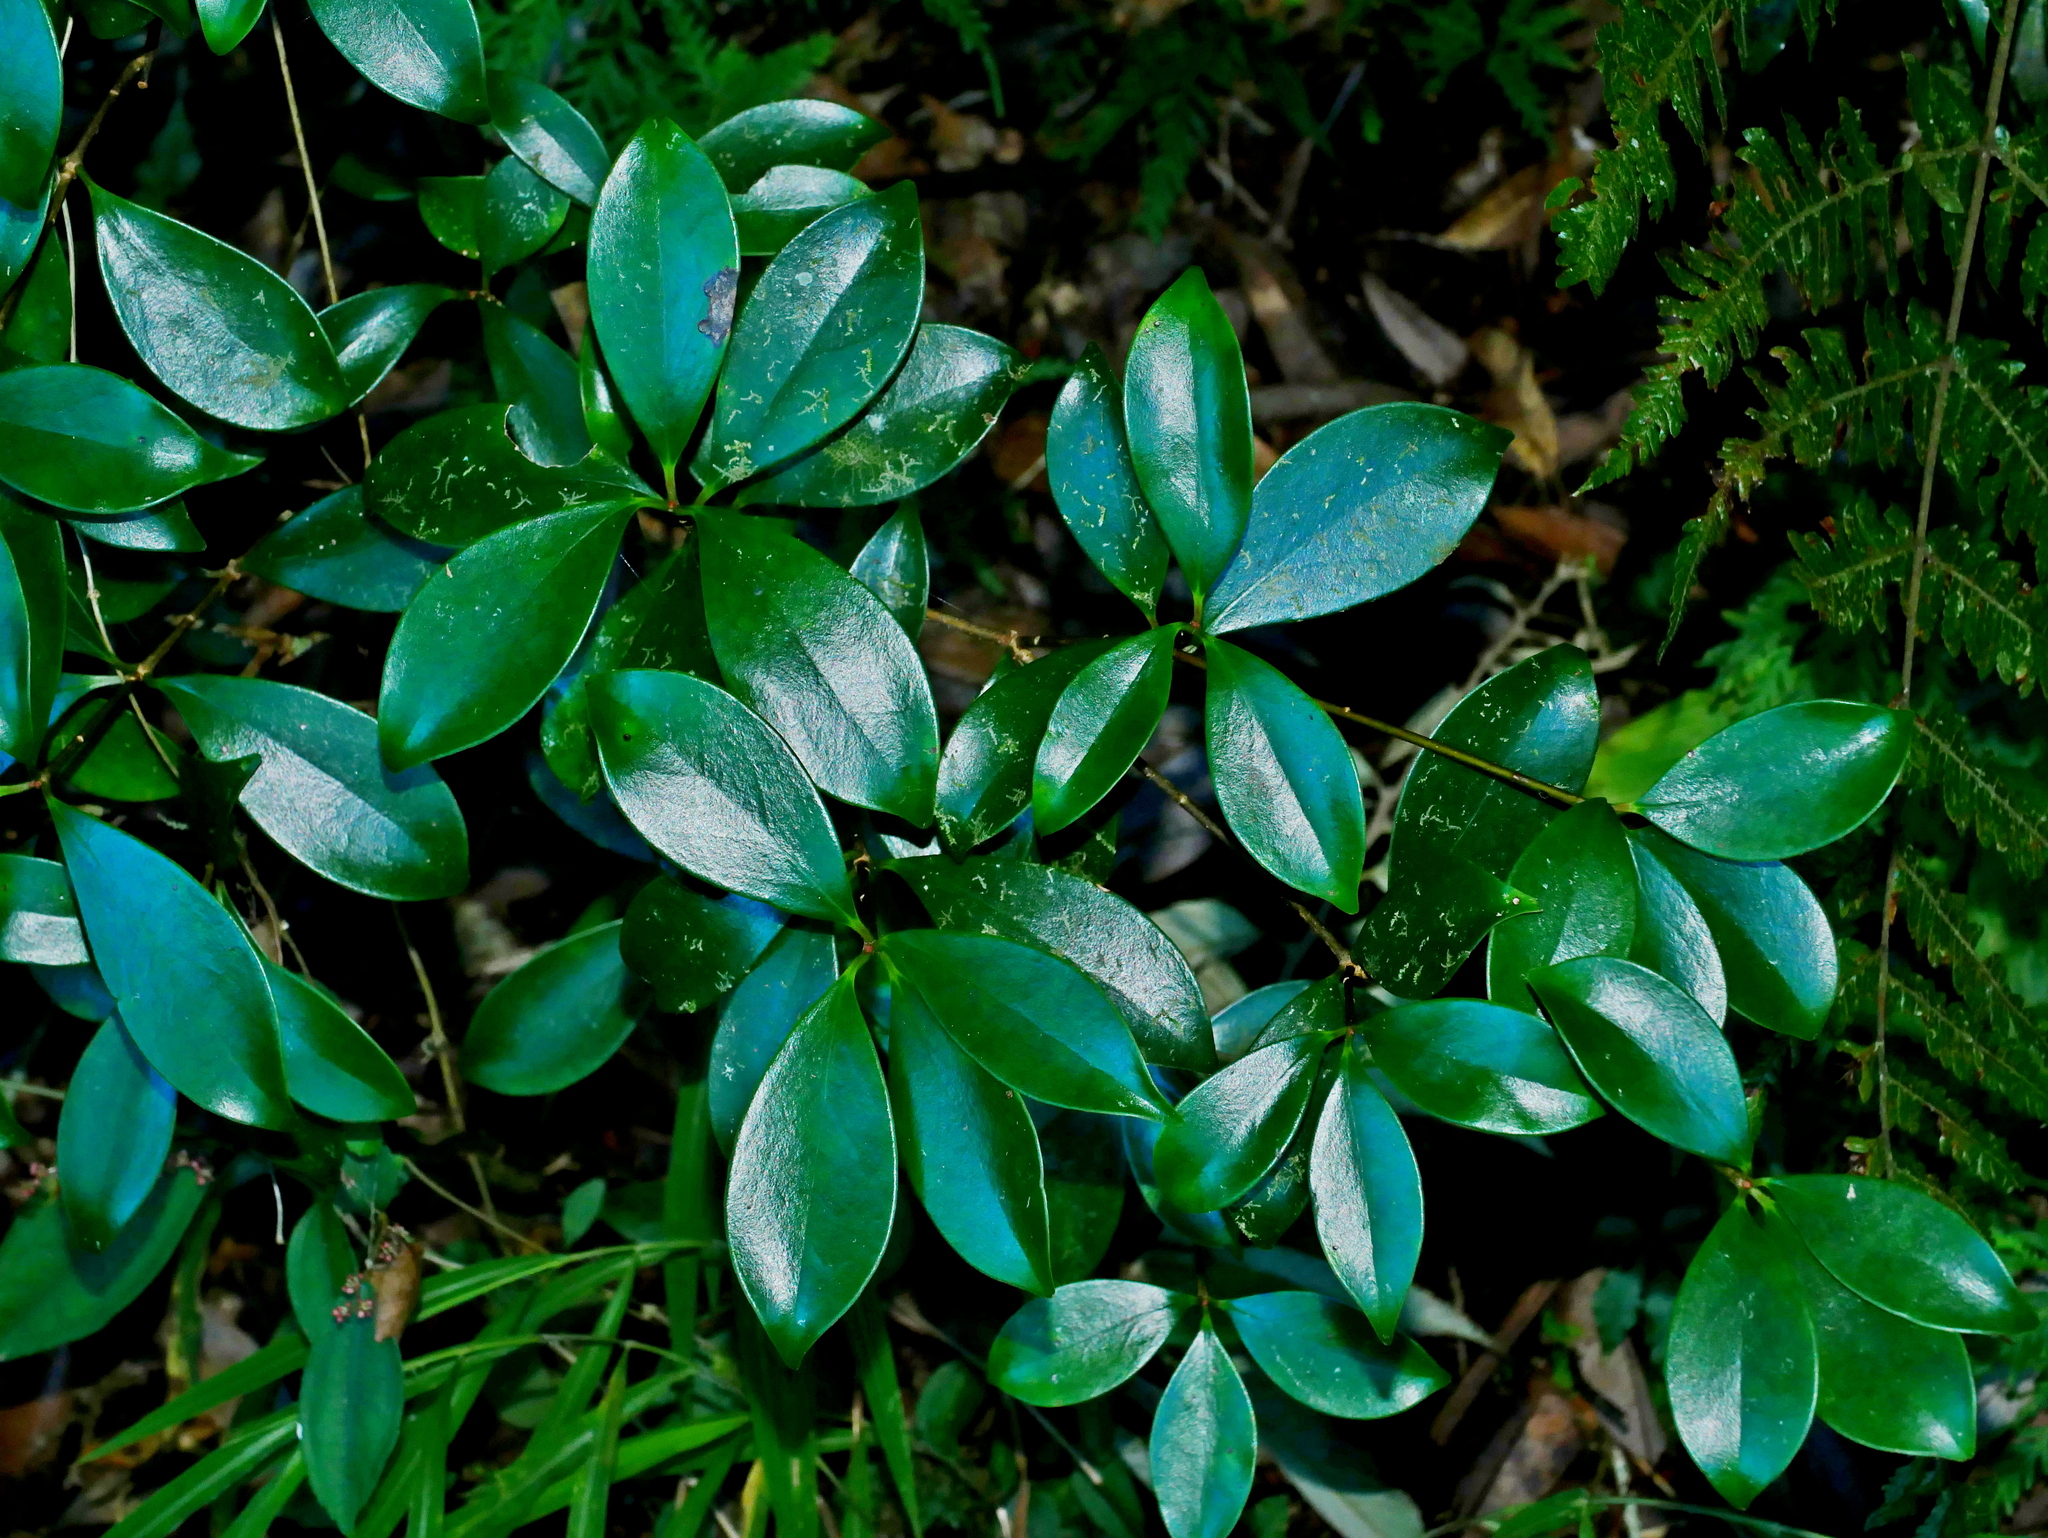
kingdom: Plantae
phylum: Tracheophyta
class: Magnoliopsida
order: Ericales
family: Pentaphylacaceae
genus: Ternstroemia
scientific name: Ternstroemia gymnanthera
